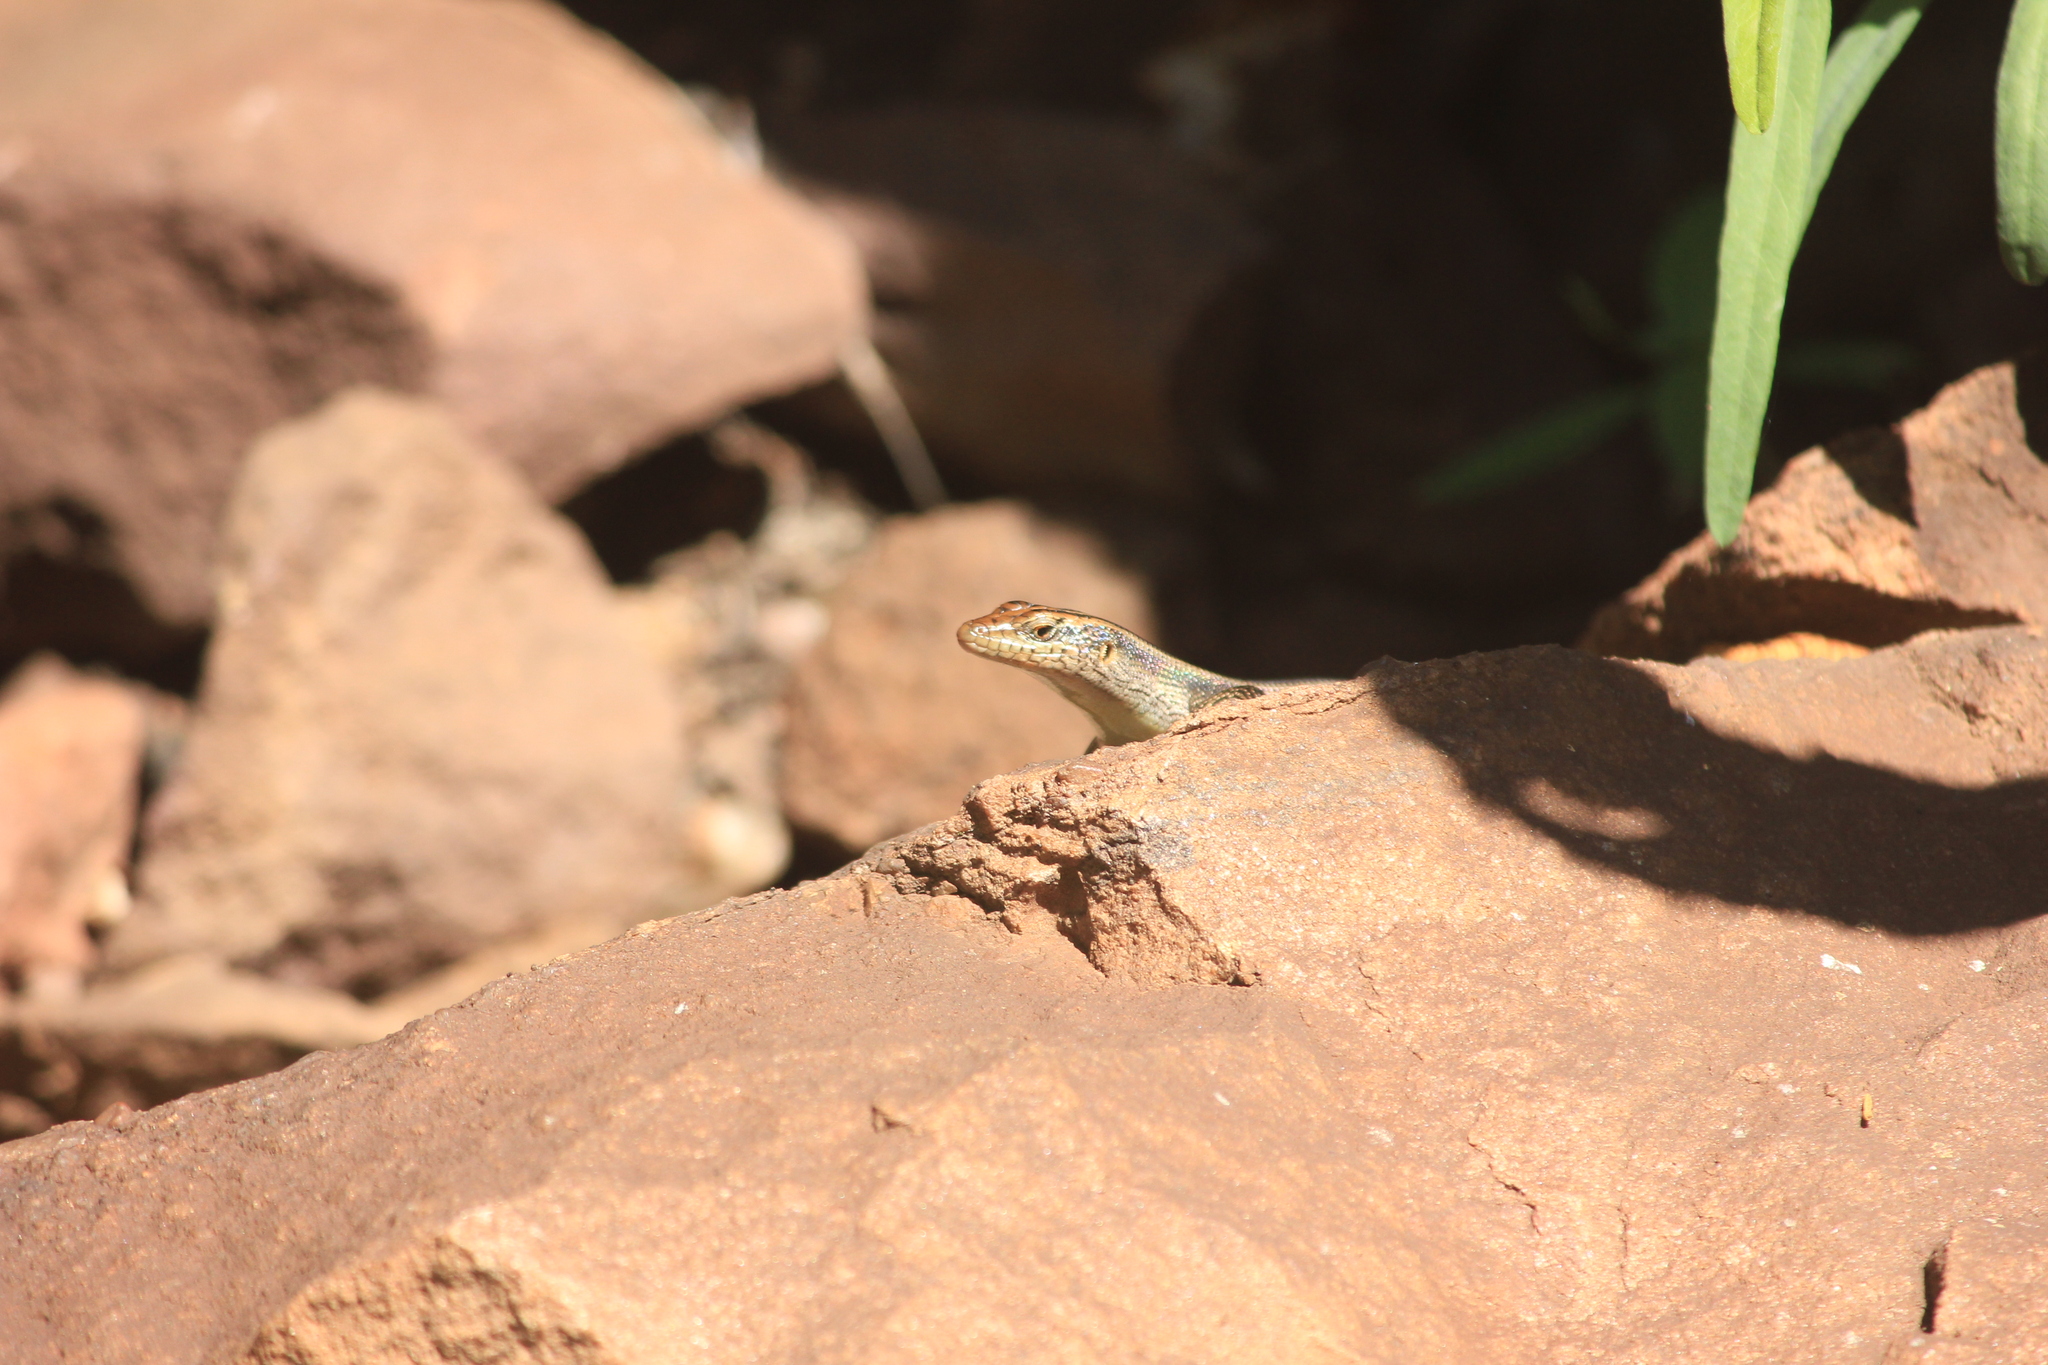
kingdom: Animalia
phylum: Chordata
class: Squamata
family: Scincidae
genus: Trachylepis
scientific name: Trachylepis margaritifera
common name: Rainbow skink
